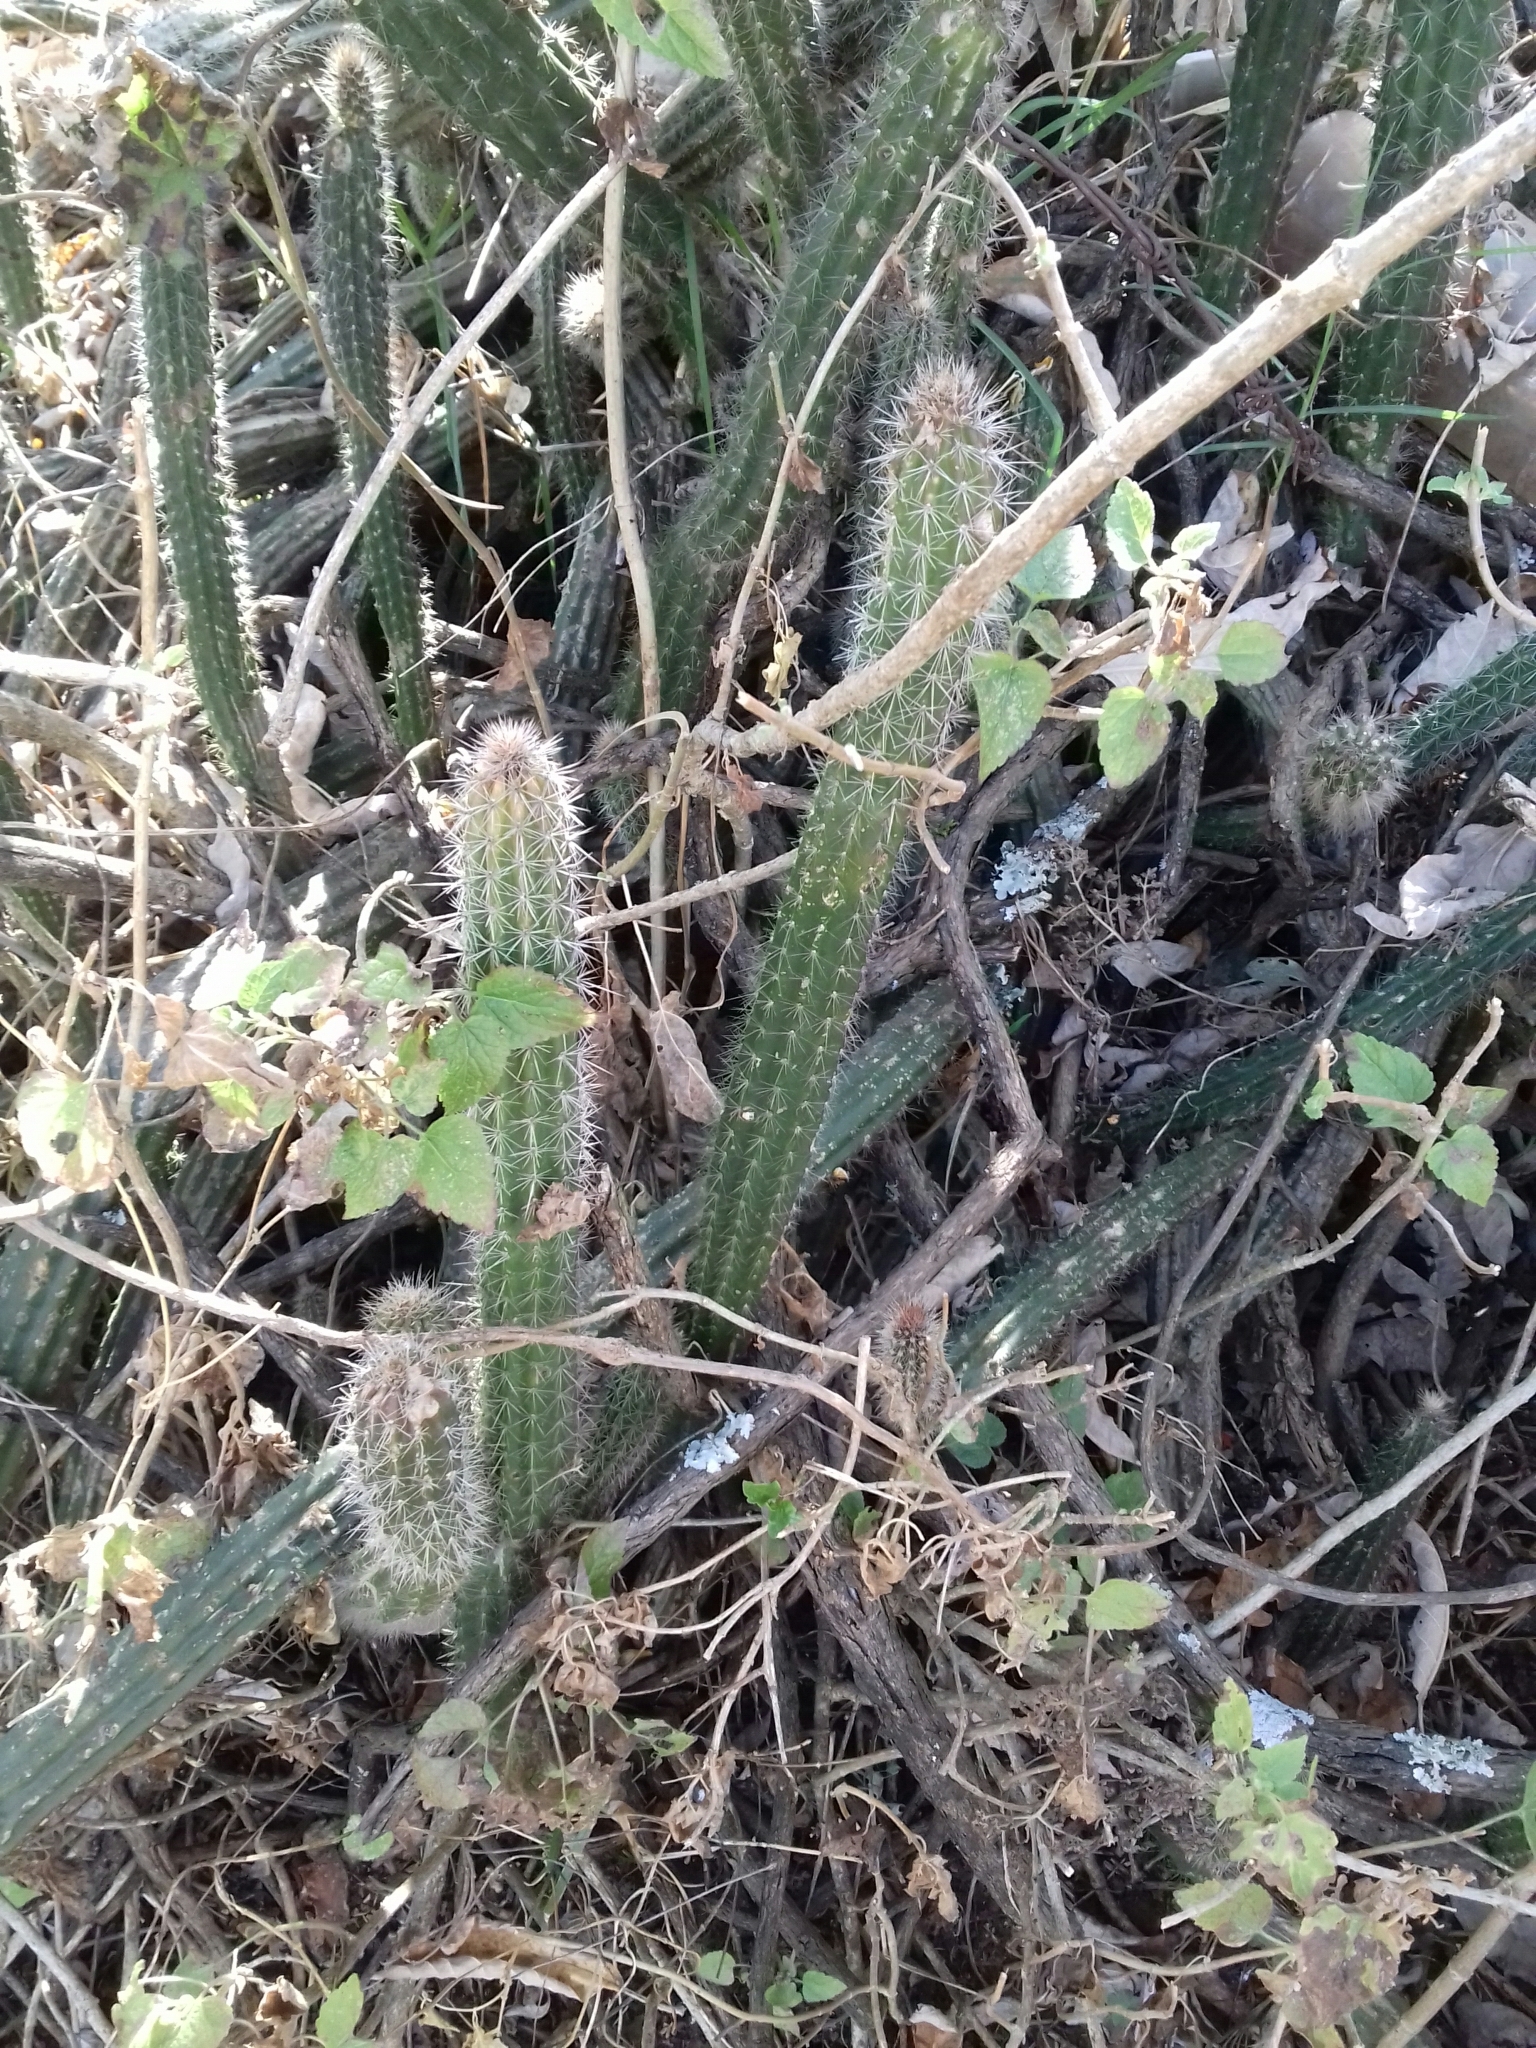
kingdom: Plantae
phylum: Tracheophyta
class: Magnoliopsida
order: Caryophyllales
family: Cactaceae
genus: Peniocereus
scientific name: Peniocereus serpentinus
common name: Serpent cactus
